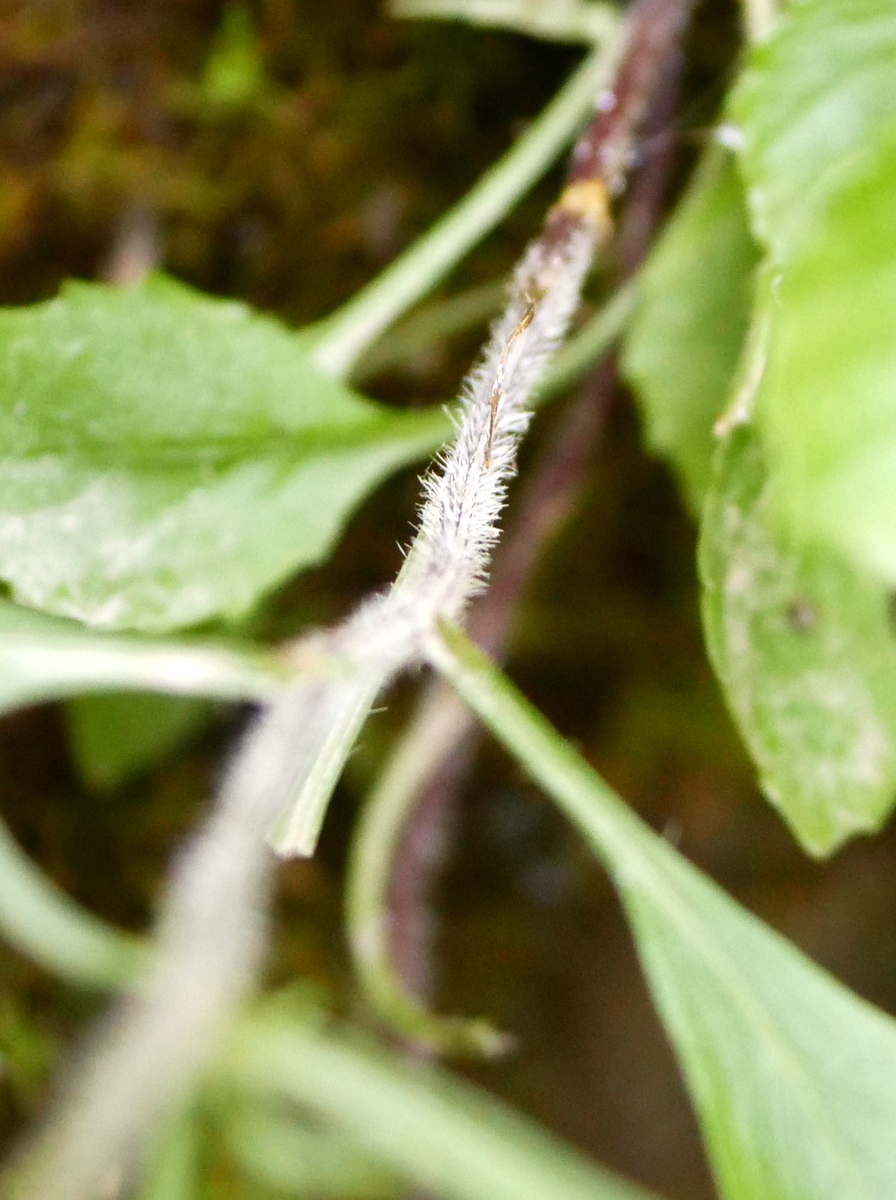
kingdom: Plantae
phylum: Tracheophyta
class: Magnoliopsida
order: Asterales
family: Campanulaceae
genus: Campanula
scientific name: Campanula rotundifolia
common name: Harebell
